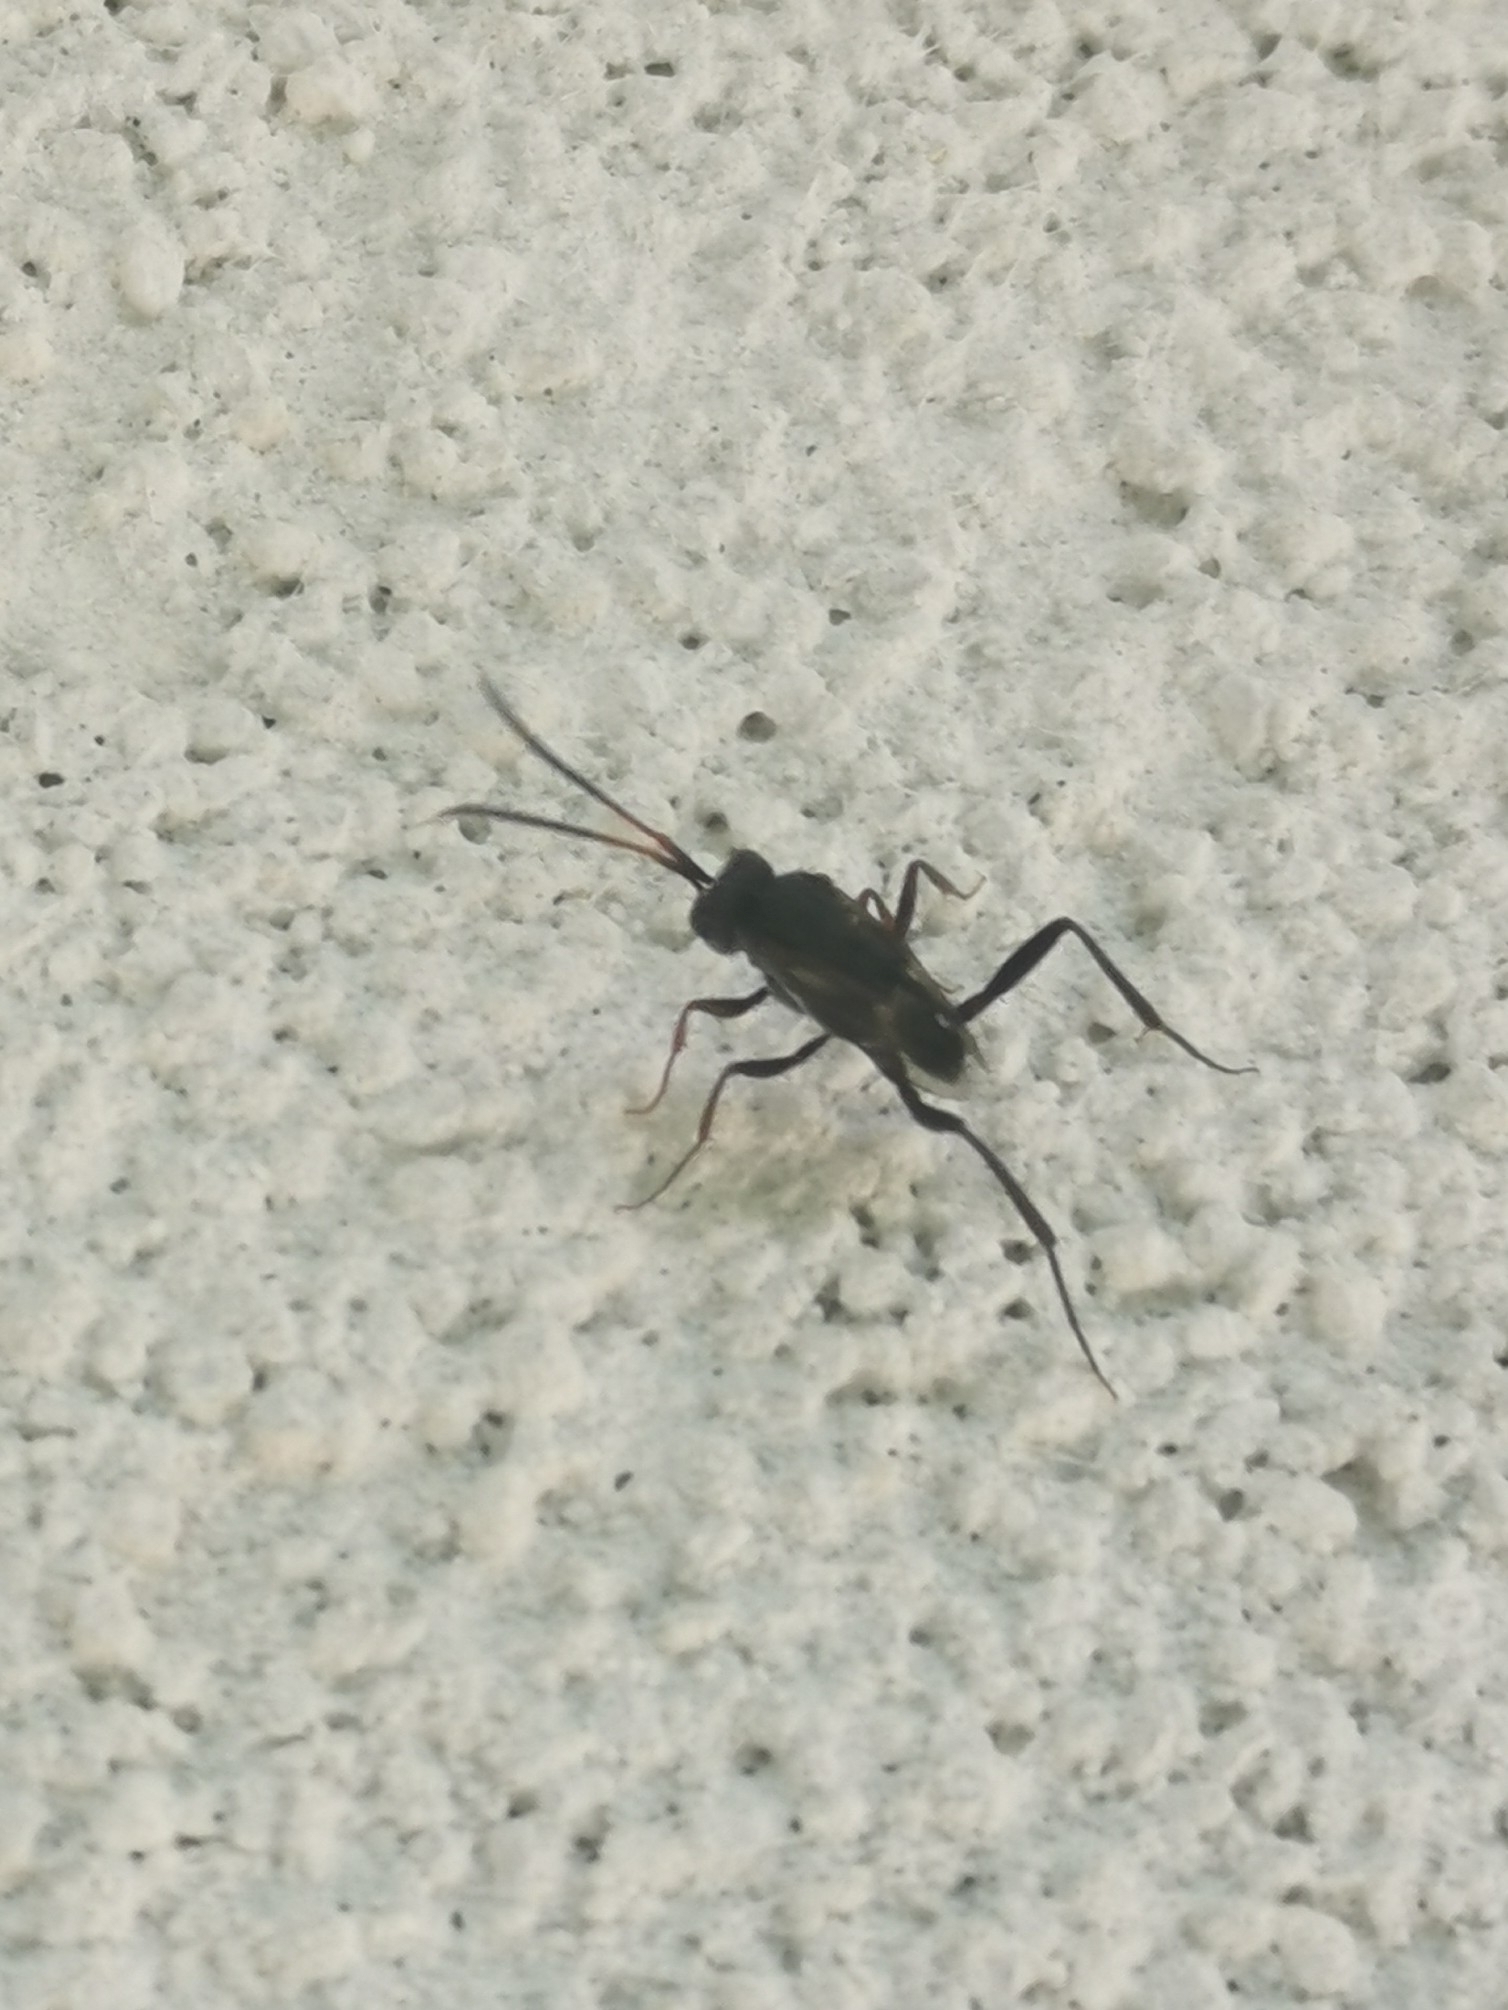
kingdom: Animalia
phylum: Arthropoda
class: Insecta
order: Hymenoptera
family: Evaniidae
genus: Prosevania
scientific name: Prosevania fuscipes
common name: Ensign wasp
